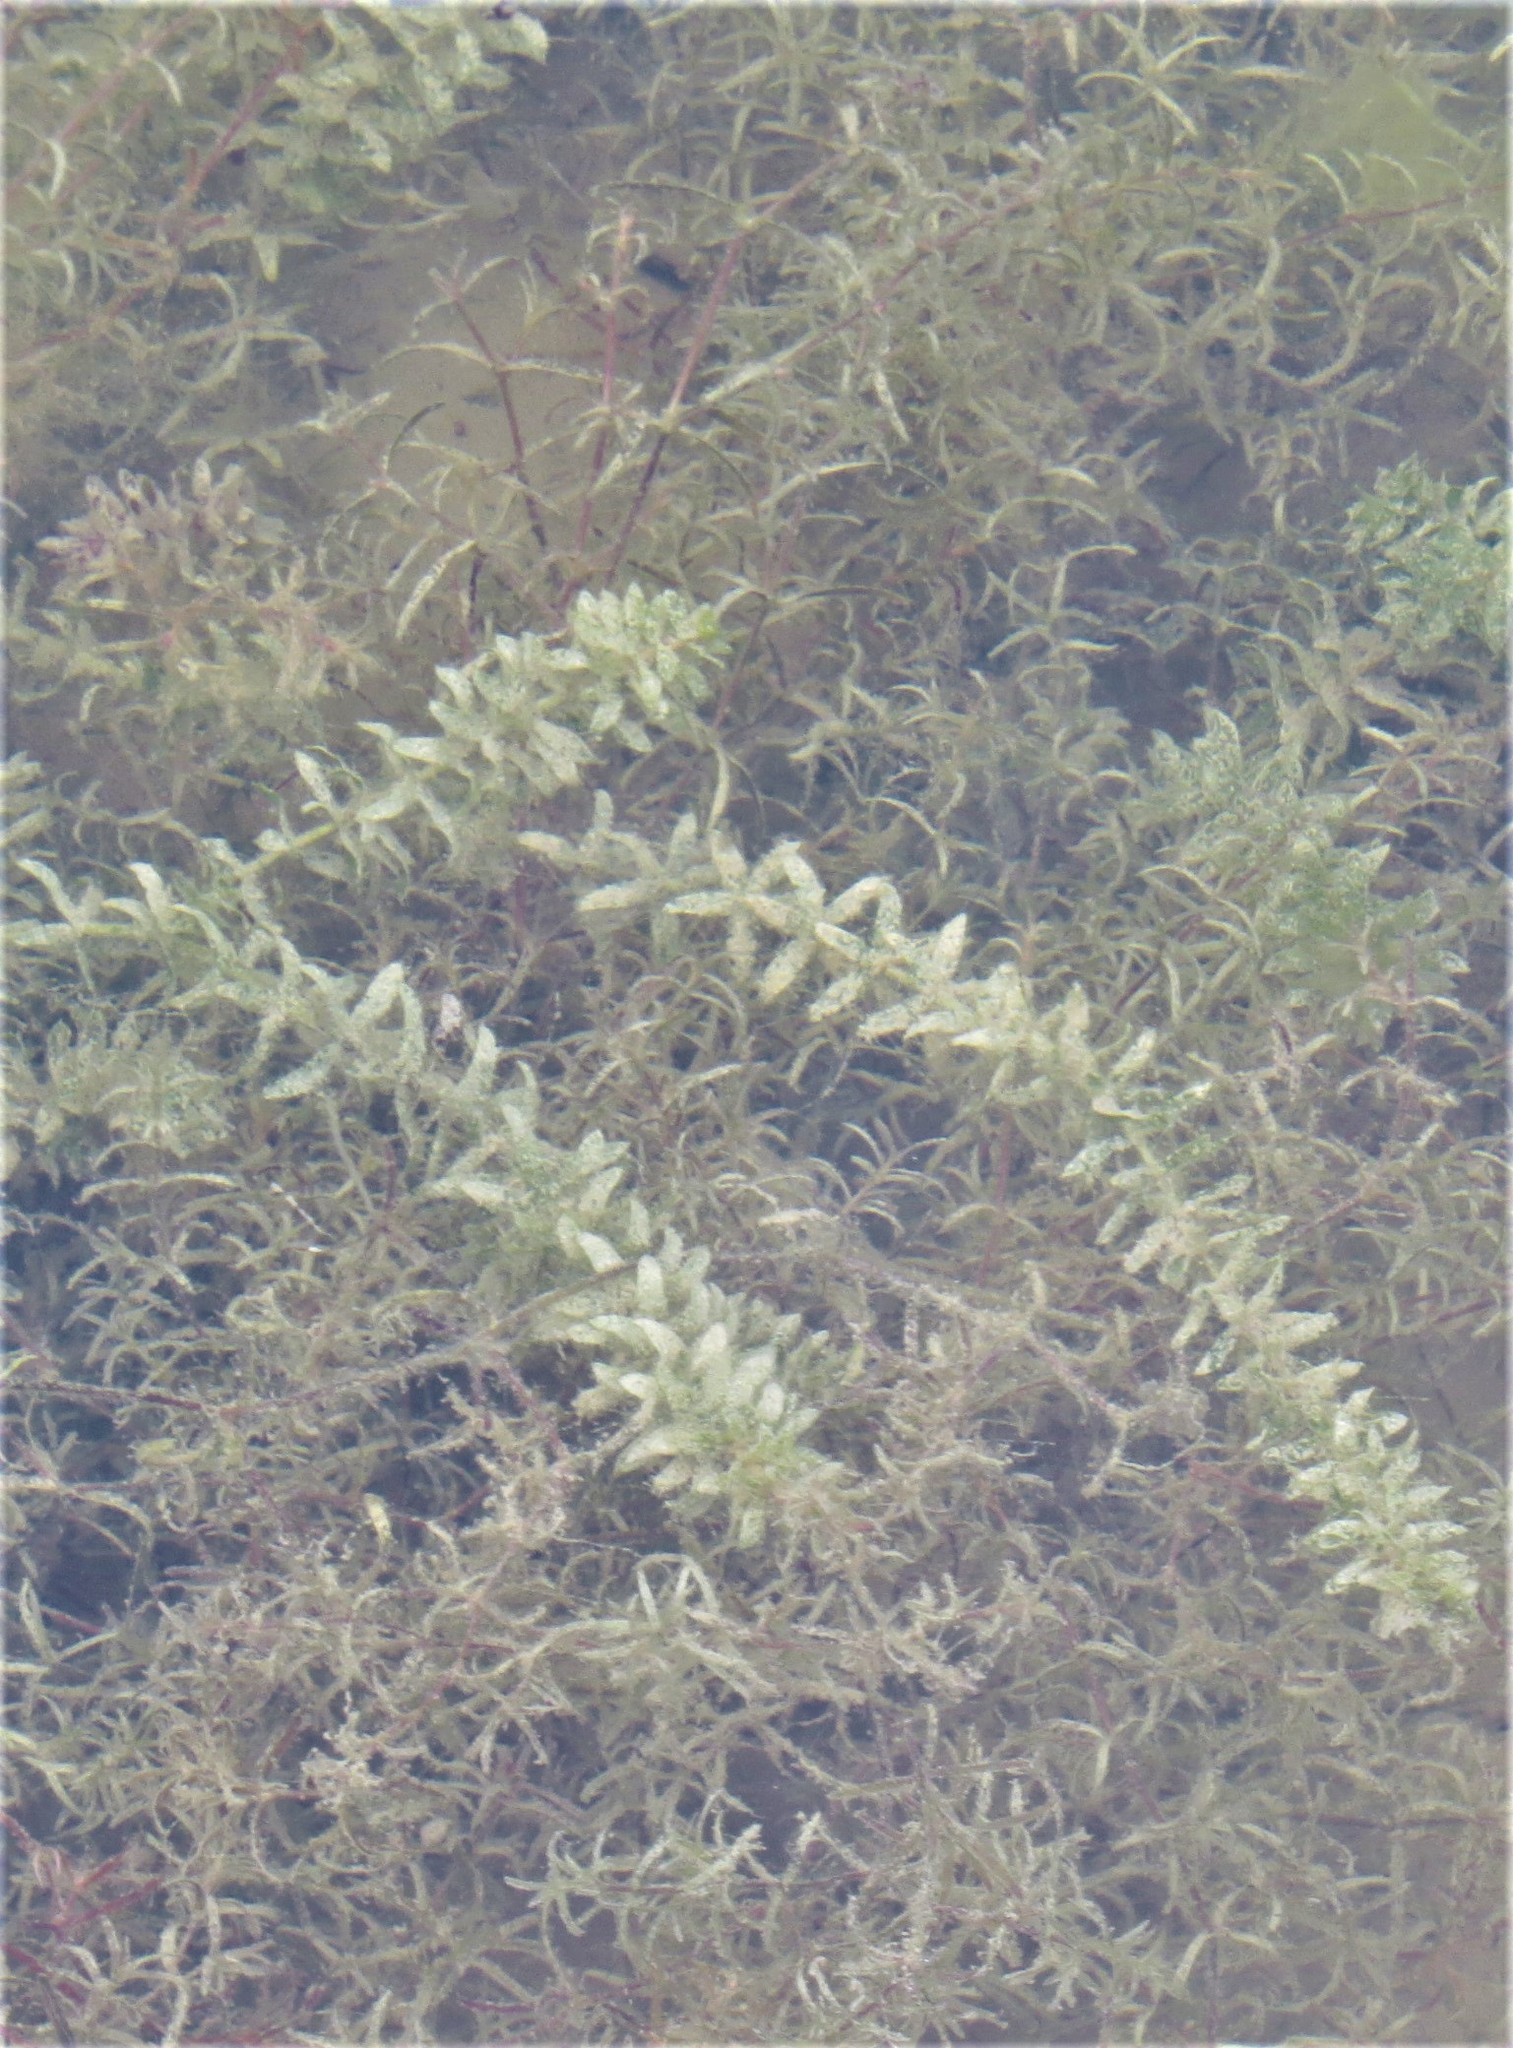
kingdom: Plantae
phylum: Tracheophyta
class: Liliopsida
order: Alismatales
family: Hydrocharitaceae
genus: Hydrilla
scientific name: Hydrilla verticillata
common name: Florida-elodea
